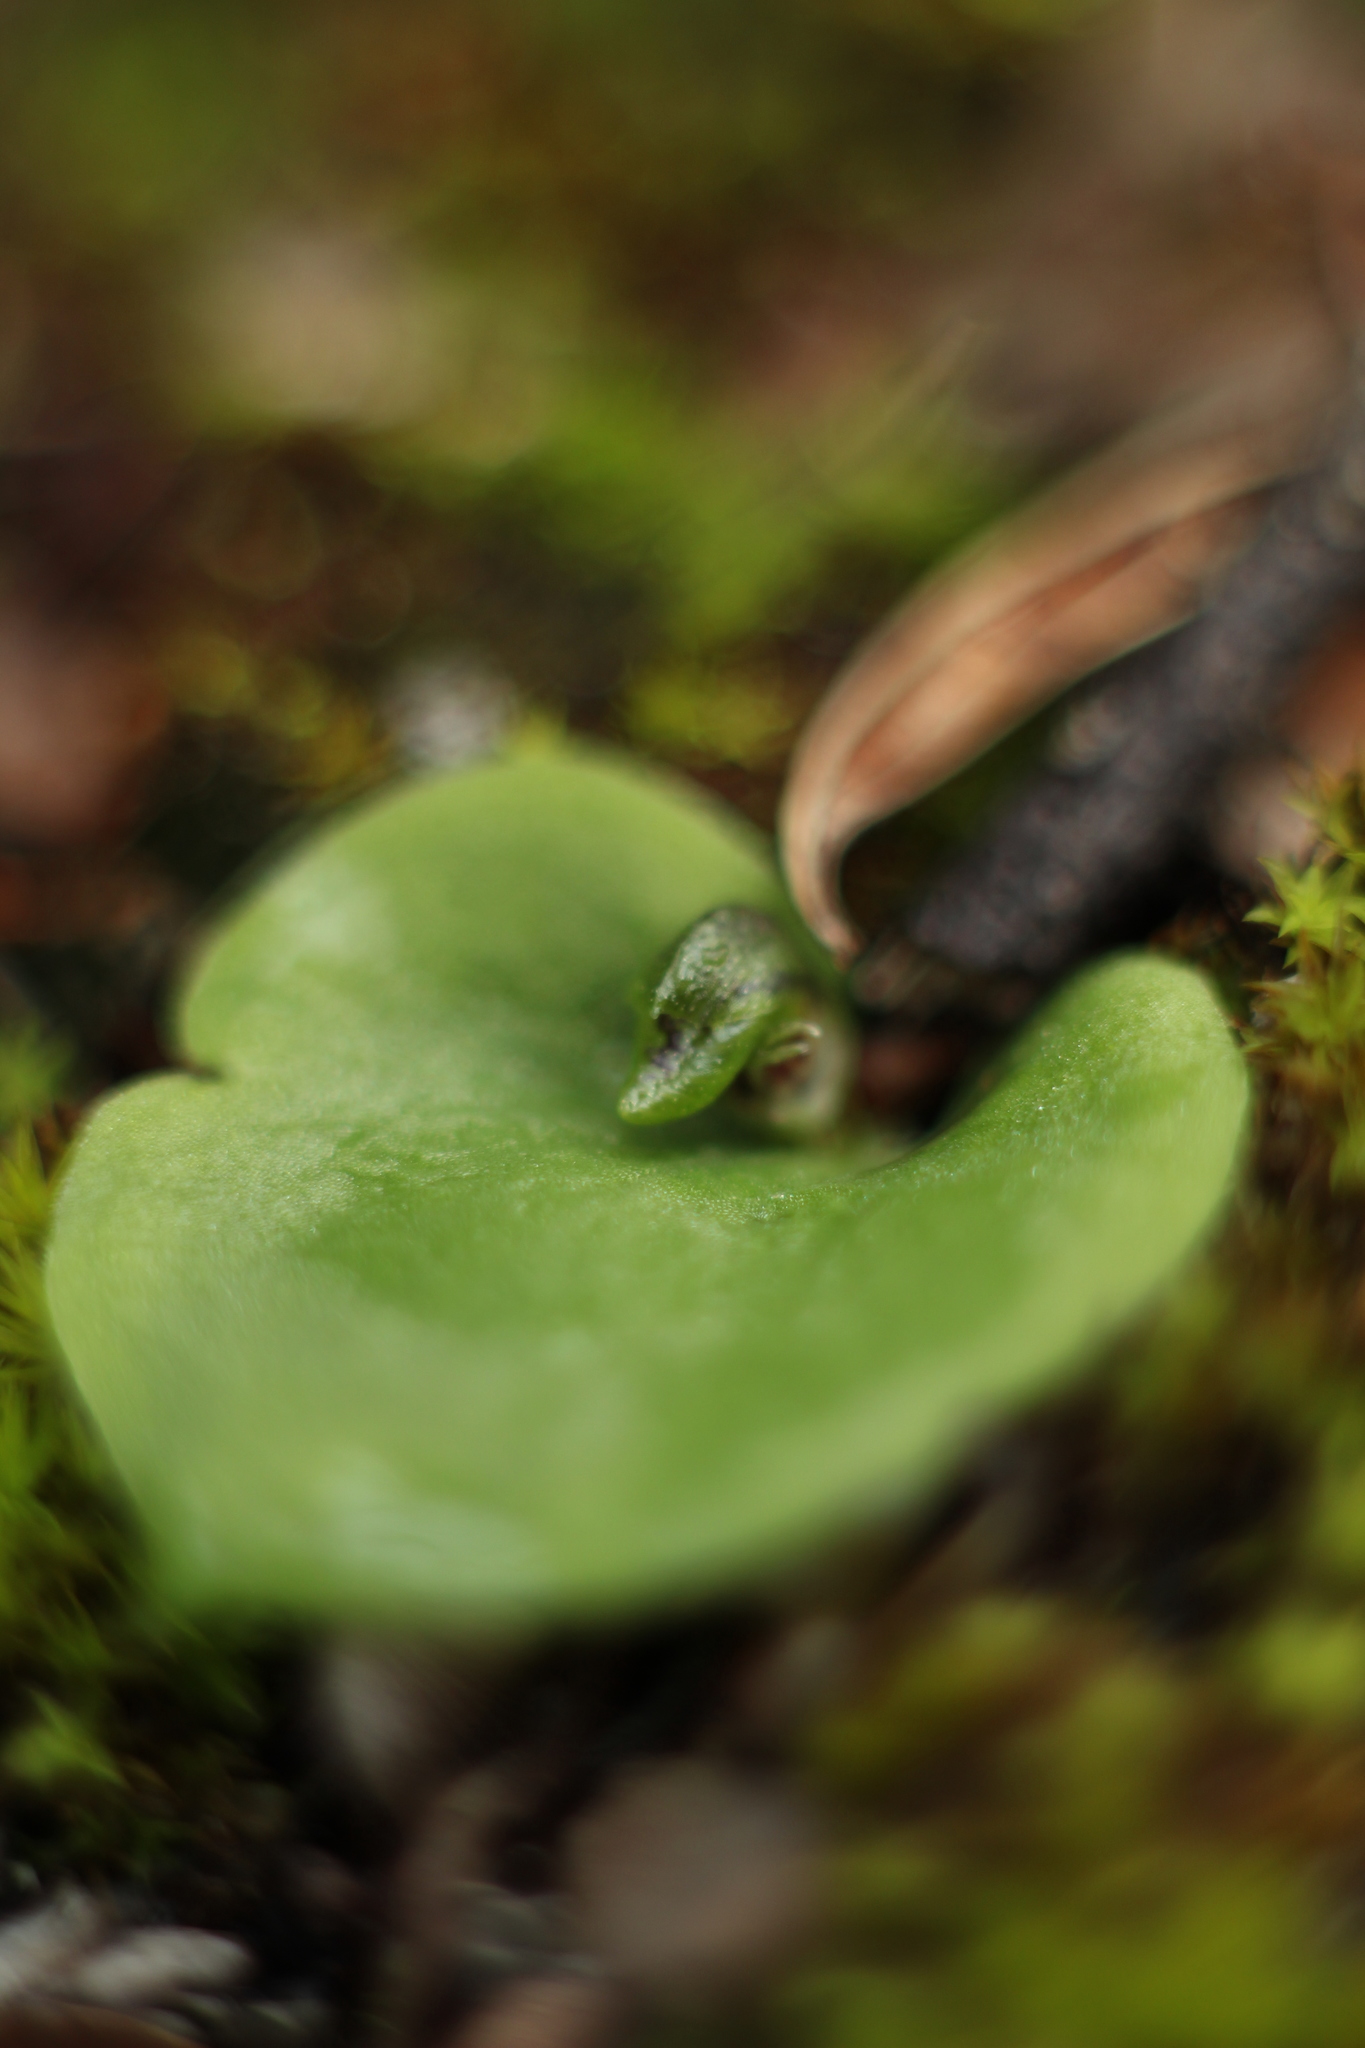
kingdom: Plantae
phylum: Tracheophyta
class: Liliopsida
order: Asparagales
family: Orchidaceae
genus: Corybas
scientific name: Corybas despectans
